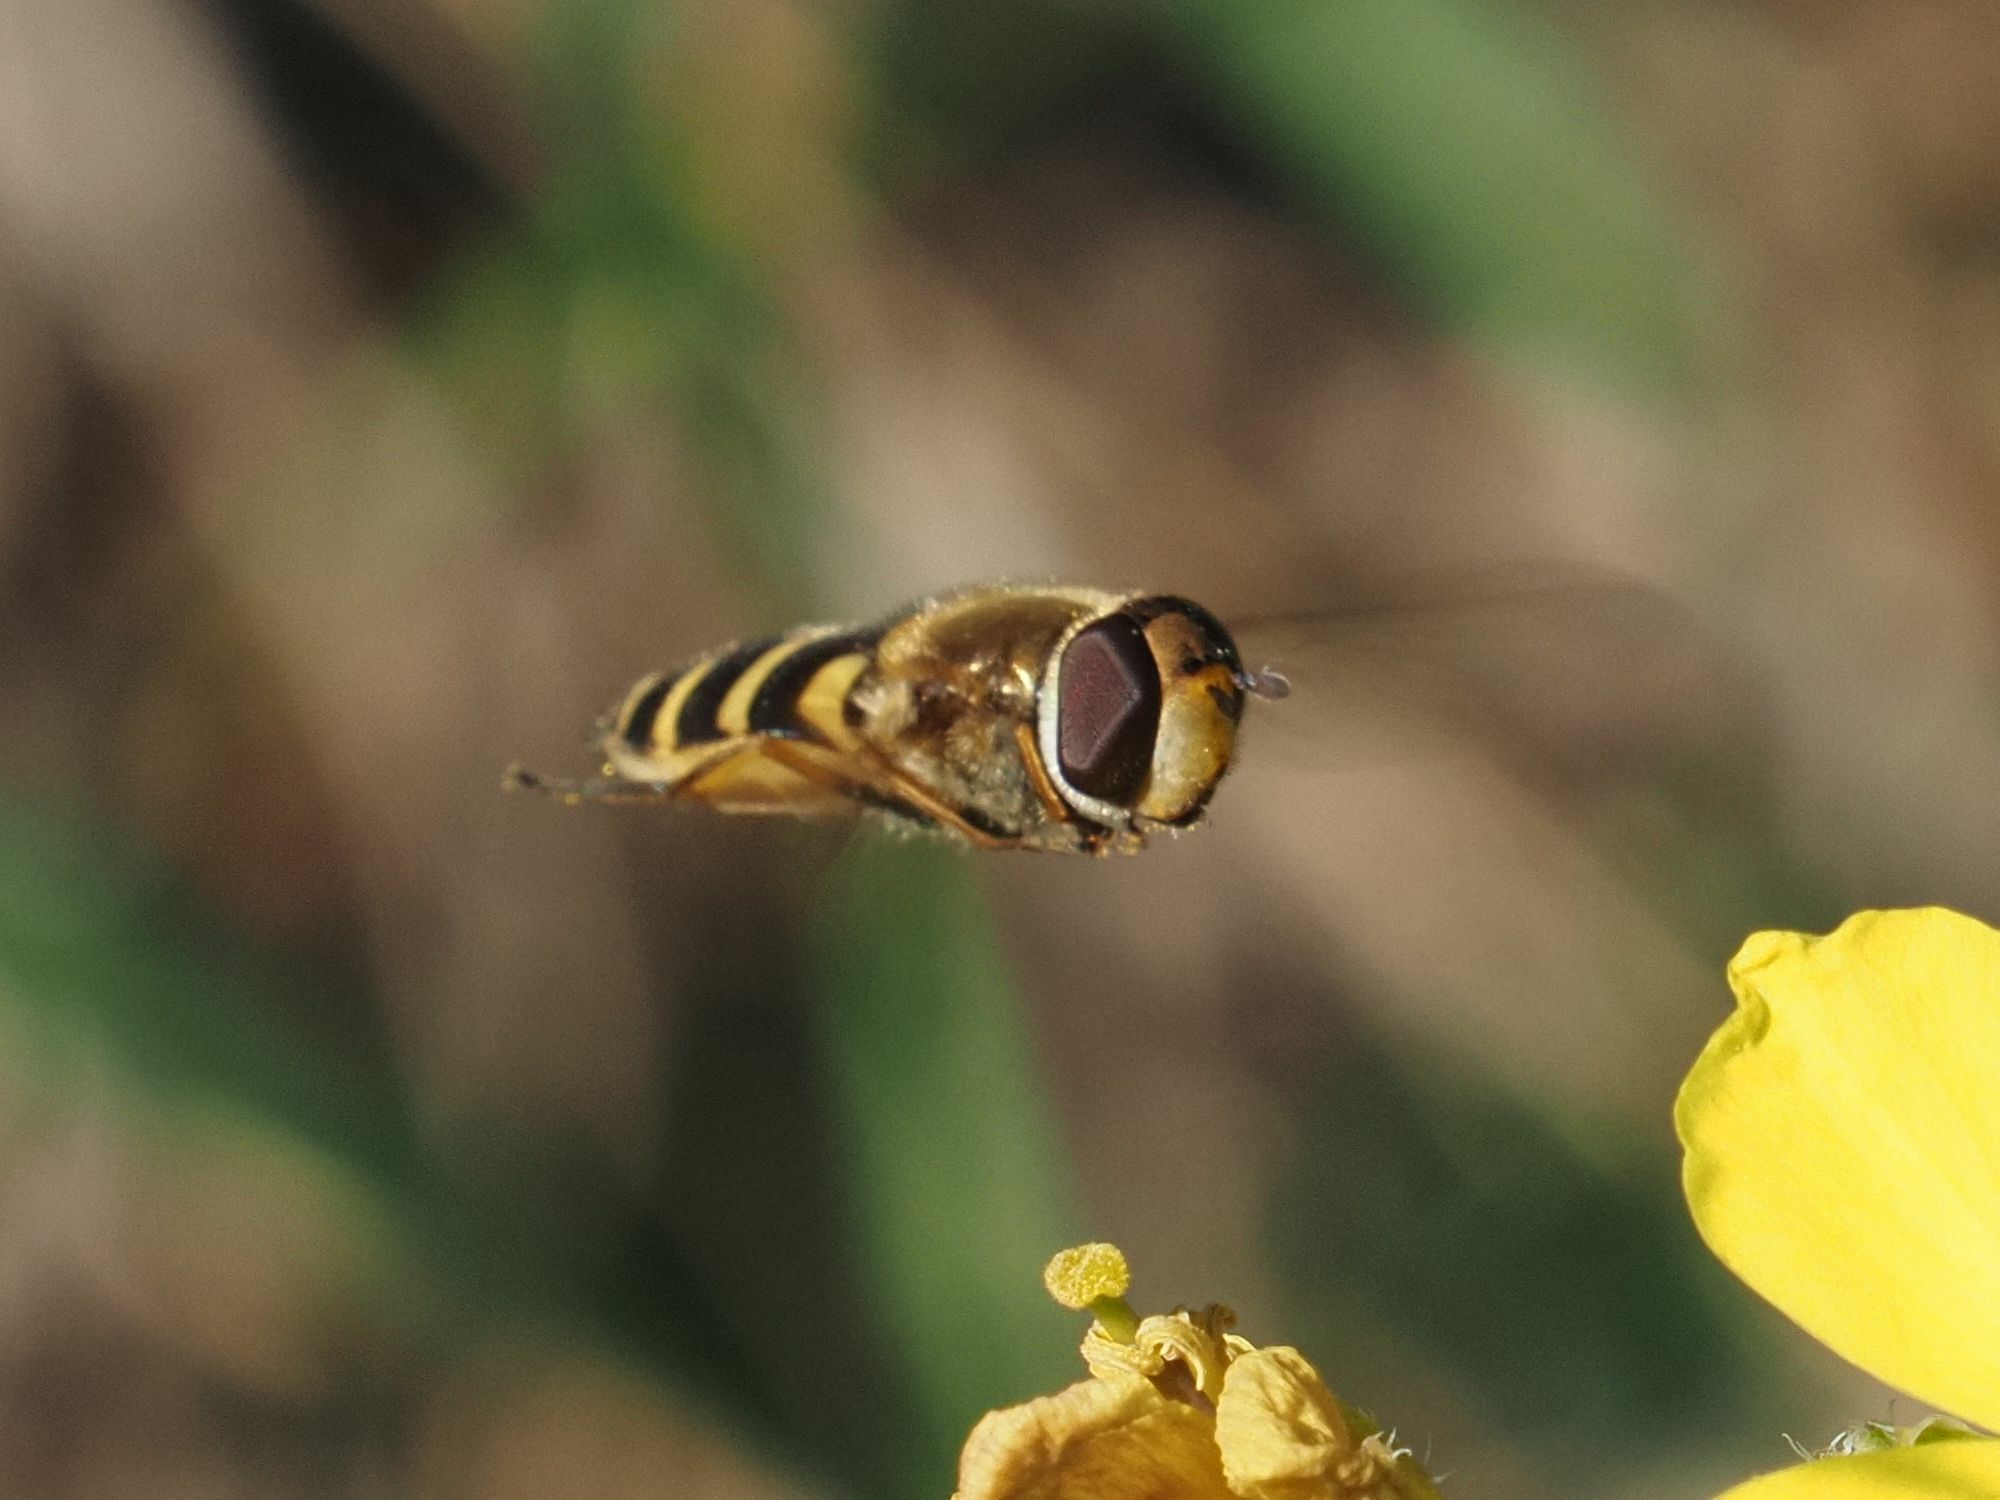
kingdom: Animalia
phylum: Arthropoda
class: Insecta
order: Diptera
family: Syrphidae
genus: Syrphus
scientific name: Syrphus
